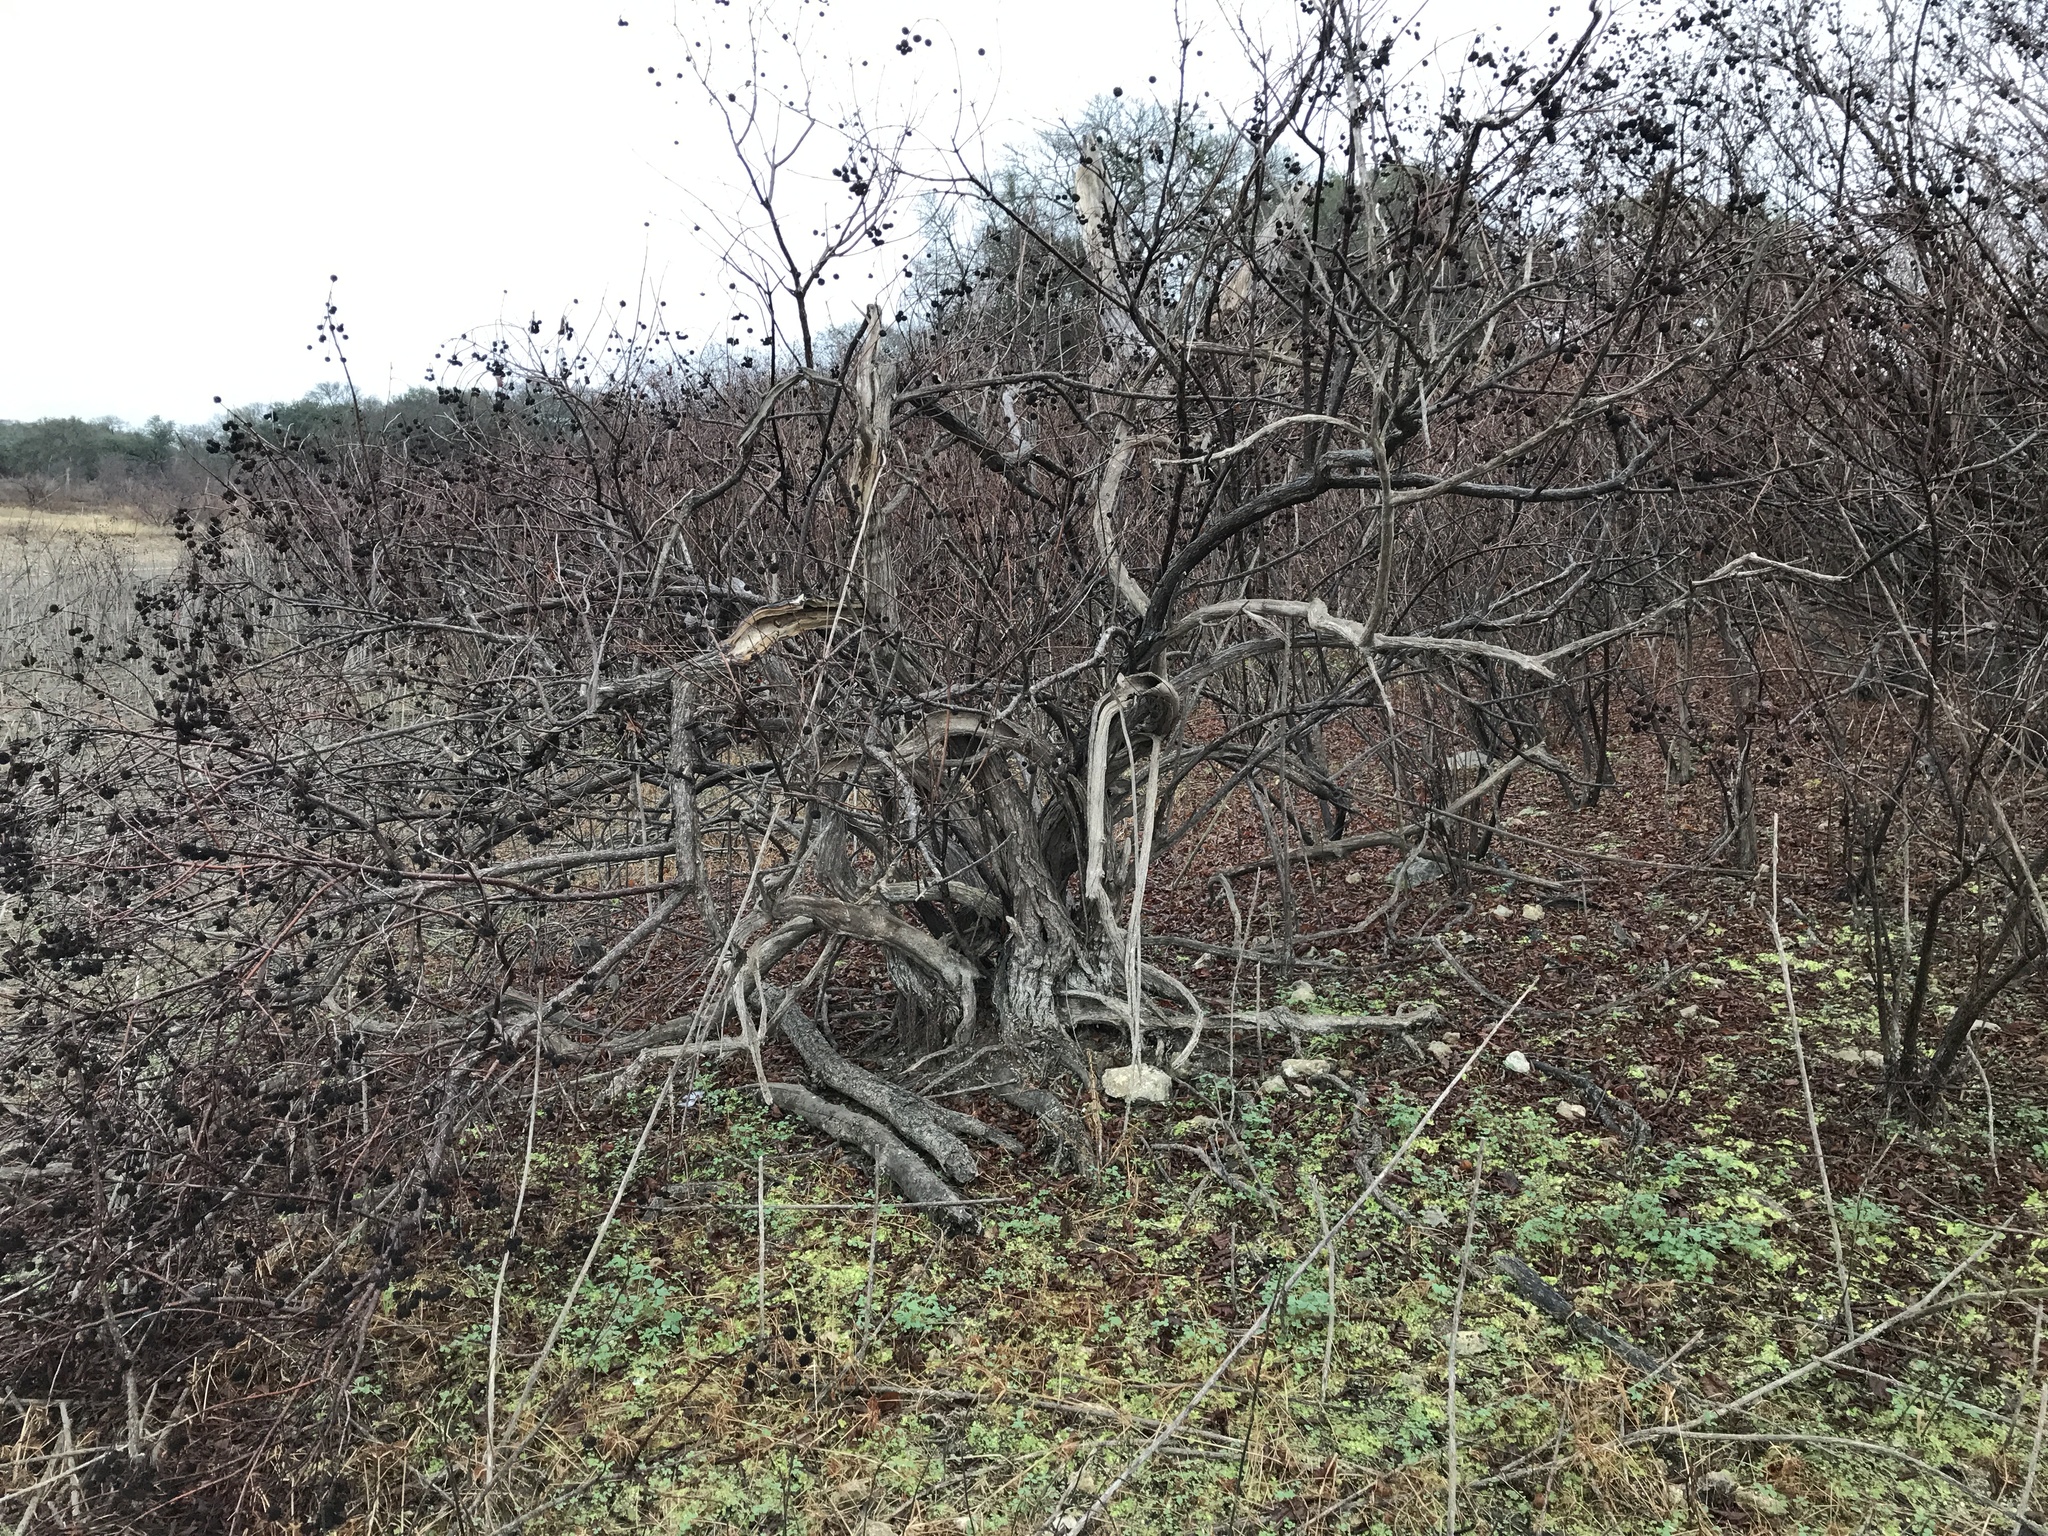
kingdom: Plantae
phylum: Tracheophyta
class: Magnoliopsida
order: Gentianales
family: Rubiaceae
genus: Cephalanthus
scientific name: Cephalanthus occidentalis
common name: Button-willow
